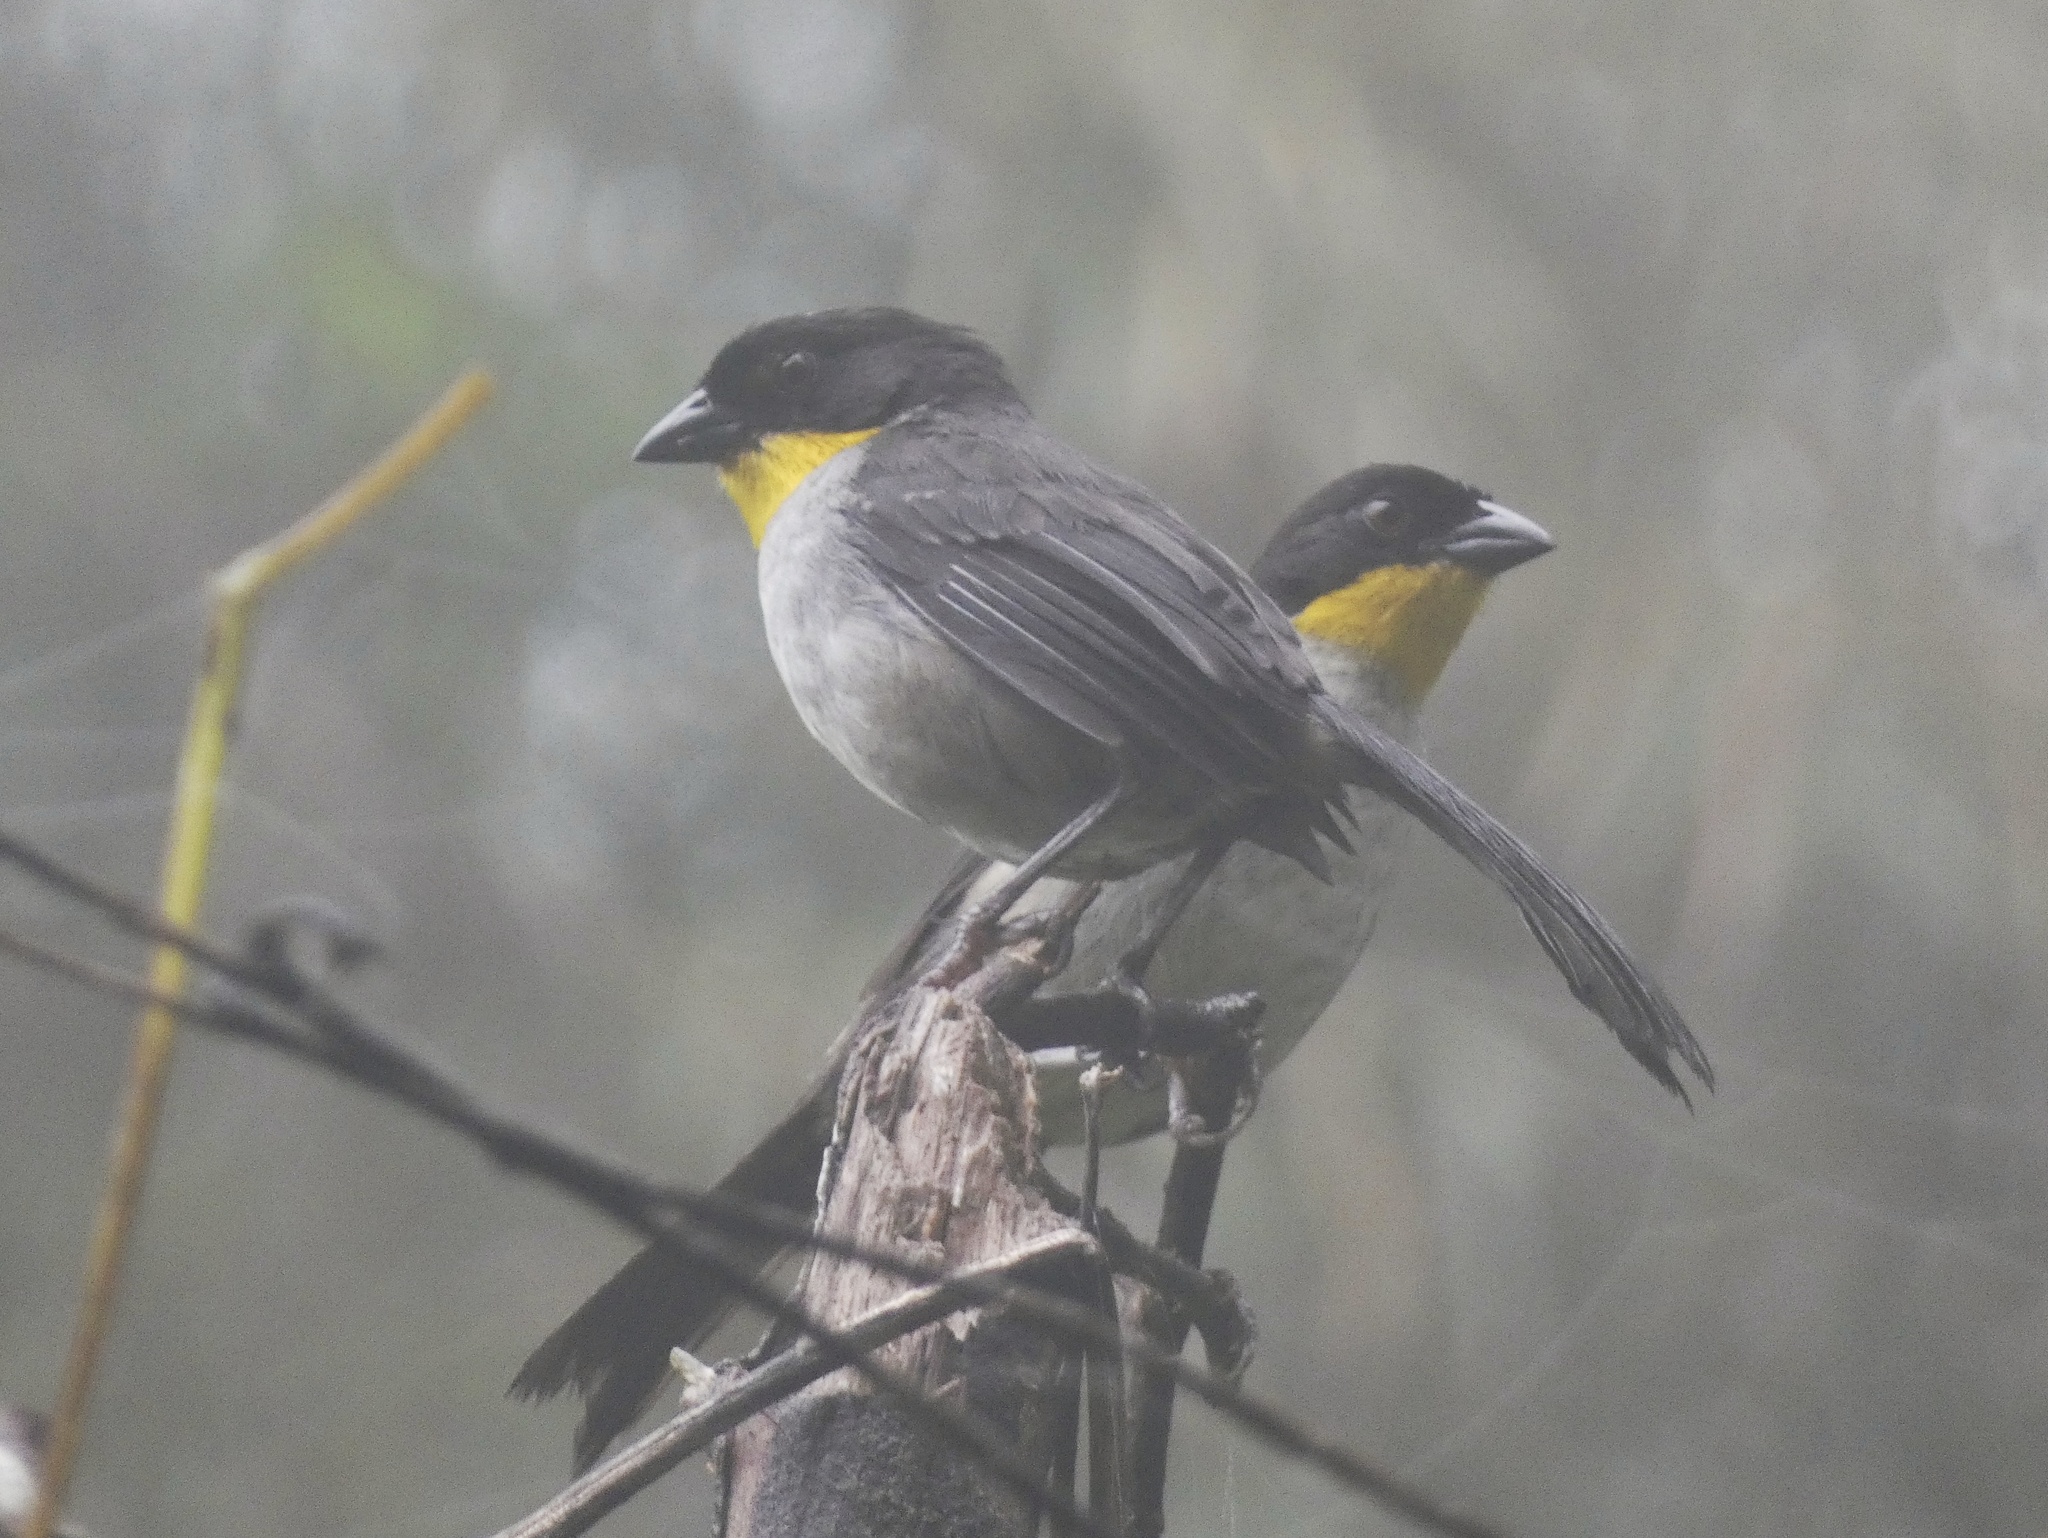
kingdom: Animalia
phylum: Chordata
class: Aves
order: Passeriformes
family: Passerellidae
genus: Atlapetes
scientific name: Atlapetes albinucha
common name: White-naped brush-finch
